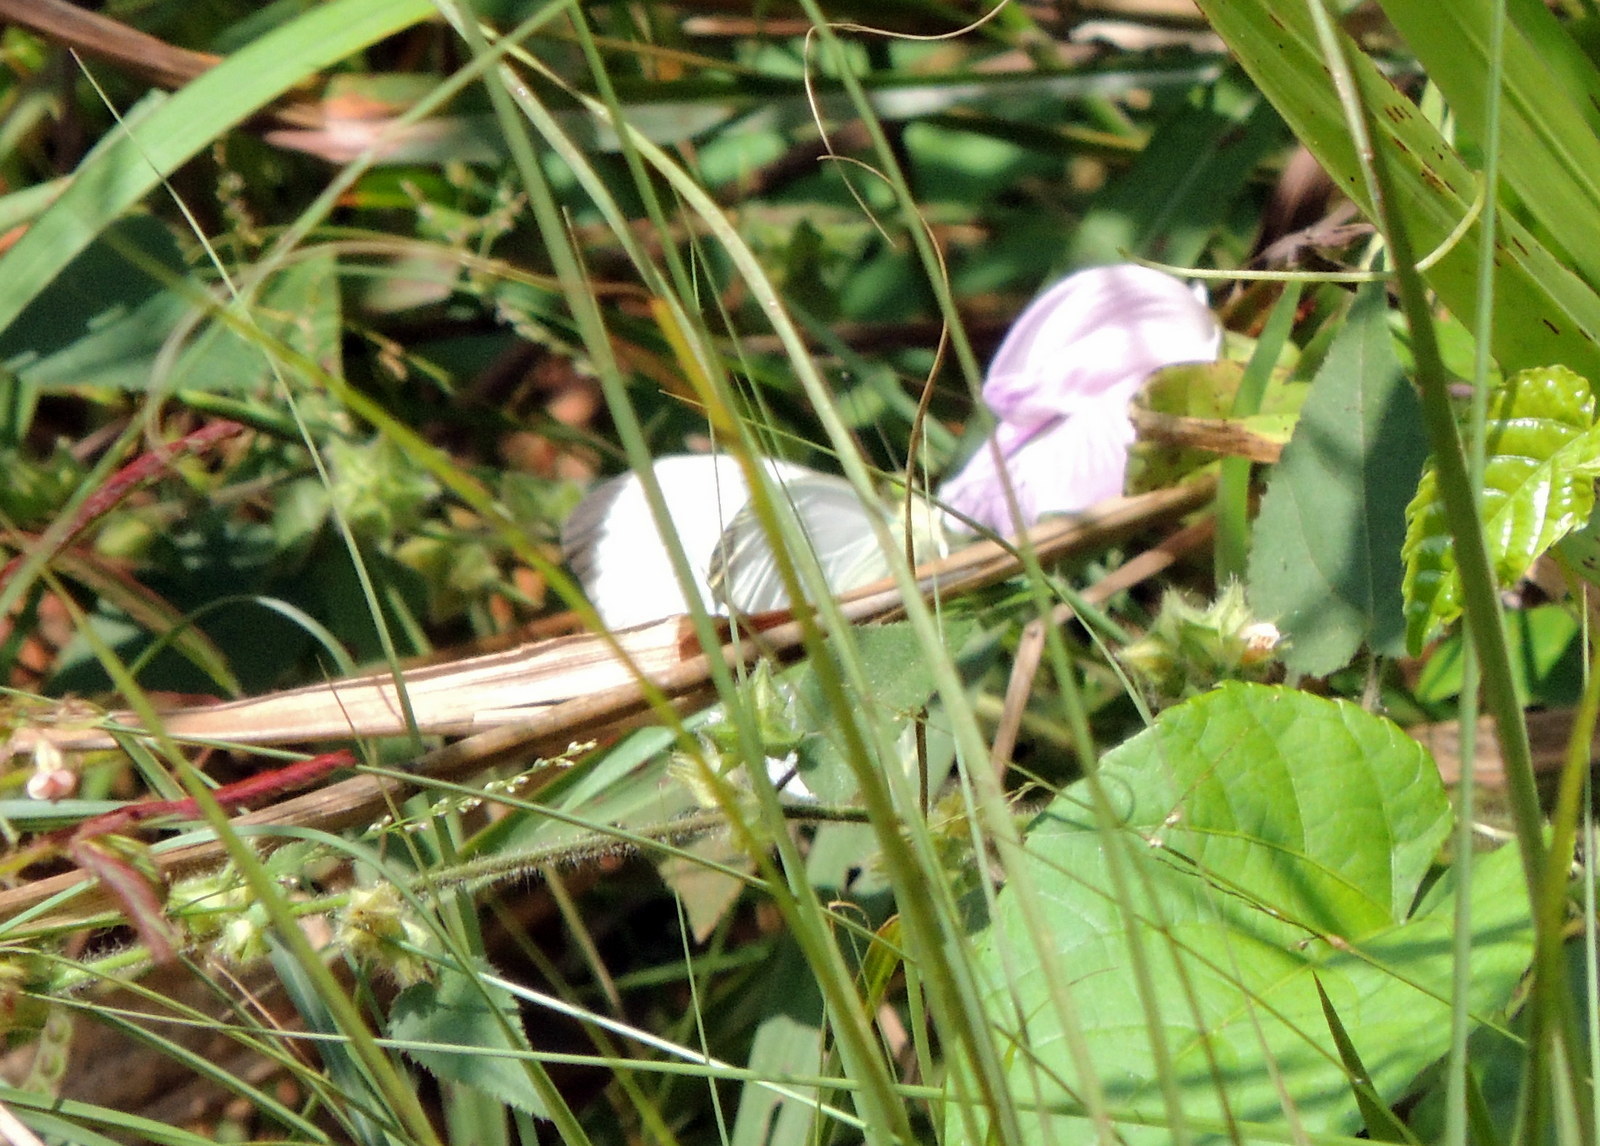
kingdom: Animalia
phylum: Arthropoda
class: Insecta
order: Lepidoptera
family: Pieridae
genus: Nepheronia
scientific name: Nepheronia pharis
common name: Round-winged vagrant
